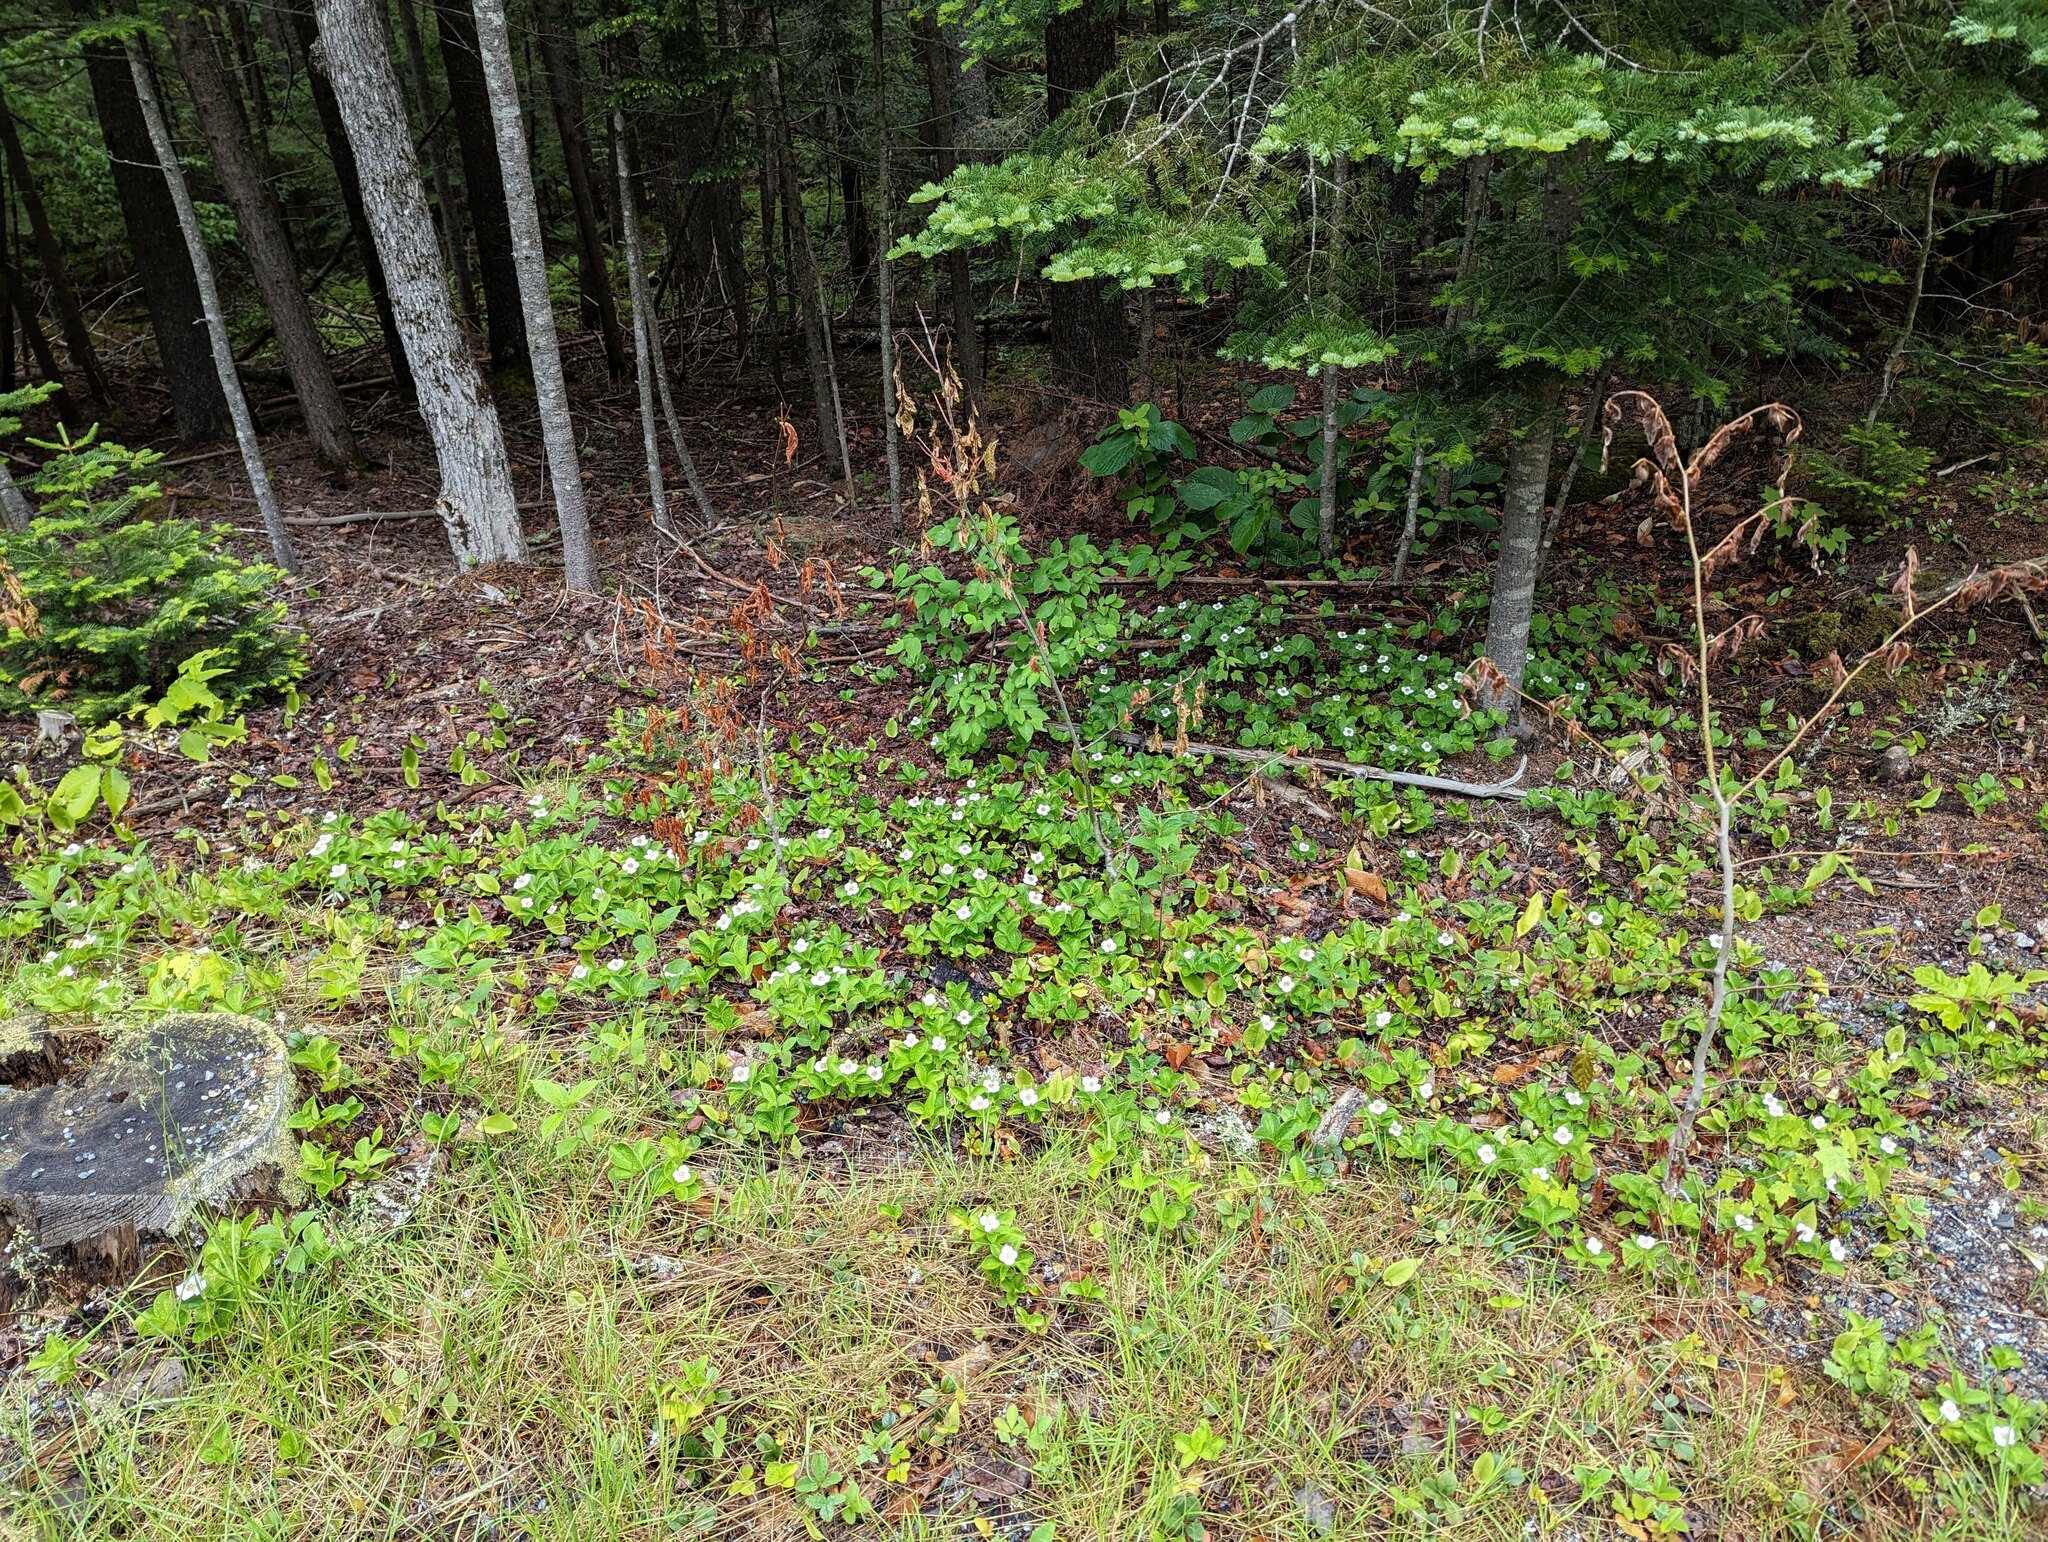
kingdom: Plantae
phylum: Tracheophyta
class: Magnoliopsida
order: Cornales
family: Cornaceae
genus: Cornus
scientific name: Cornus canadensis
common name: Creeping dogwood
